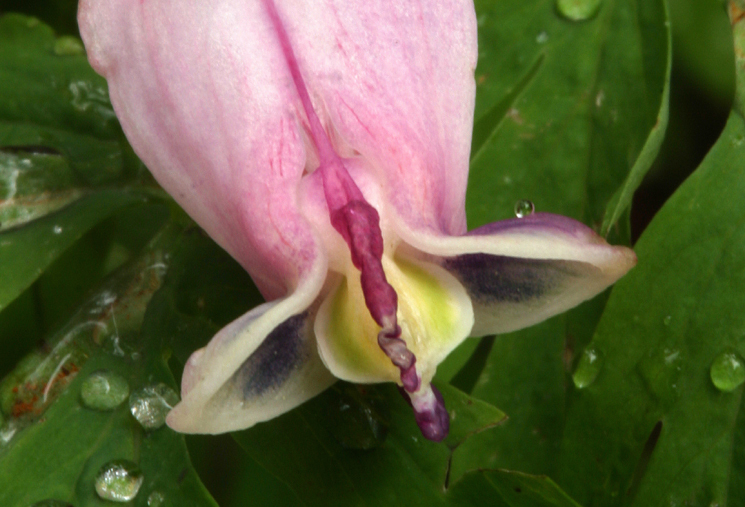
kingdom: Plantae
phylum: Tracheophyta
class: Magnoliopsida
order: Ranunculales
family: Papaveraceae
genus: Dicentra
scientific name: Dicentra formosa
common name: Bleeding-heart
